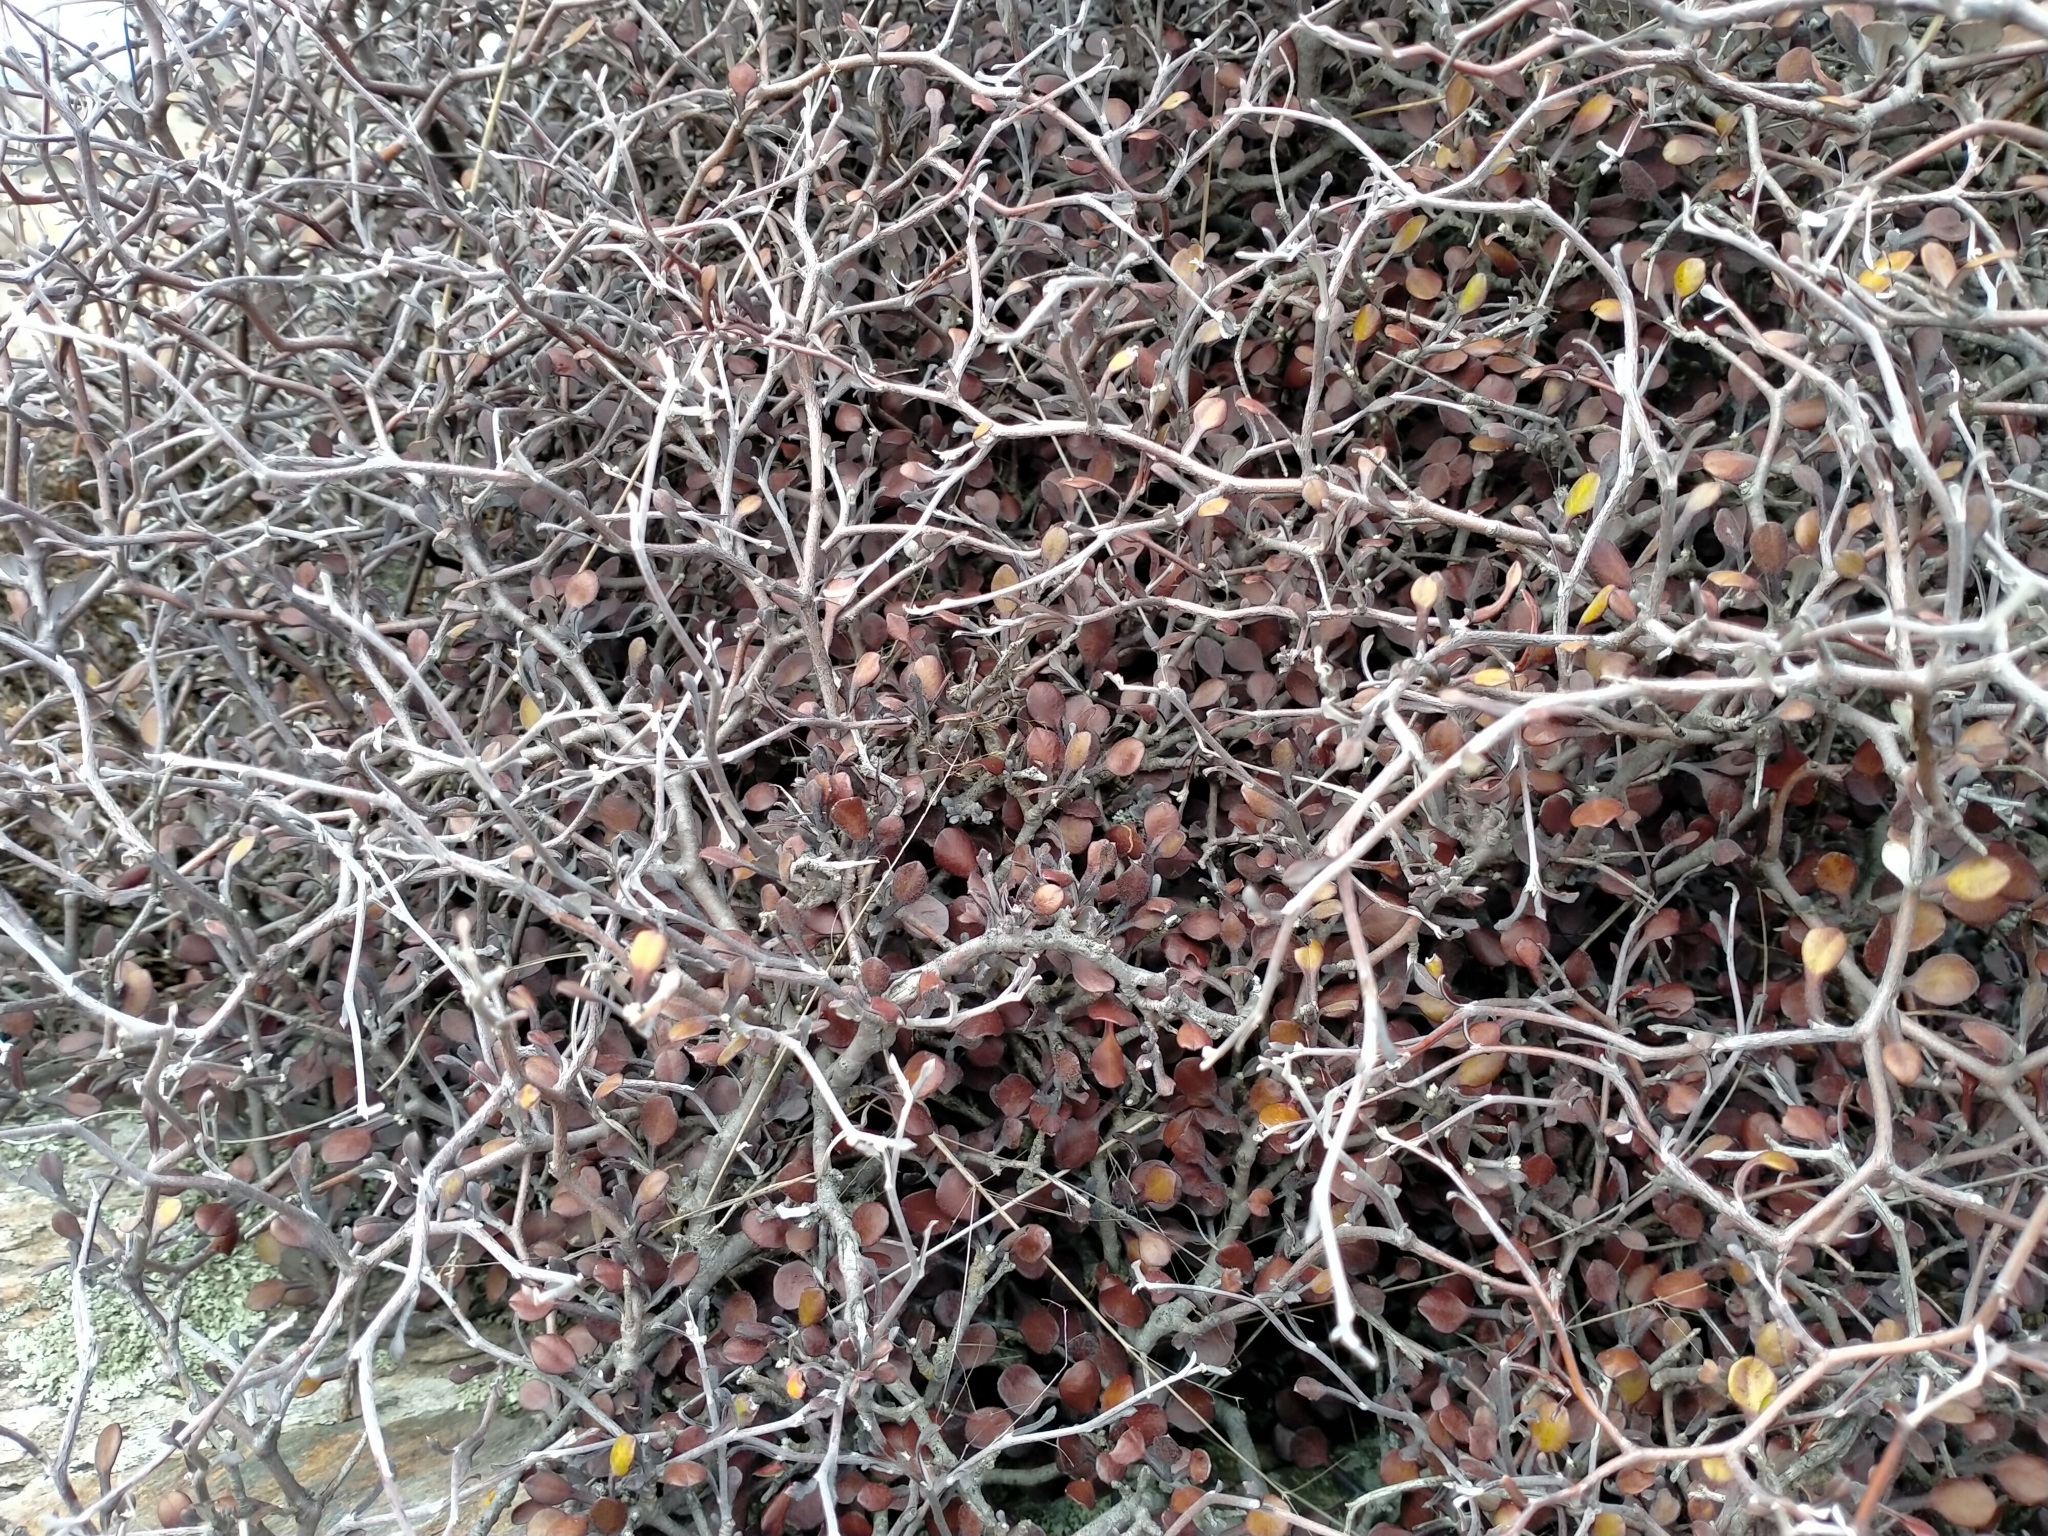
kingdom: Plantae
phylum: Tracheophyta
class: Magnoliopsida
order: Asterales
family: Argophyllaceae
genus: Corokia
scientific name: Corokia cotoneaster
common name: Wire nettingbush
